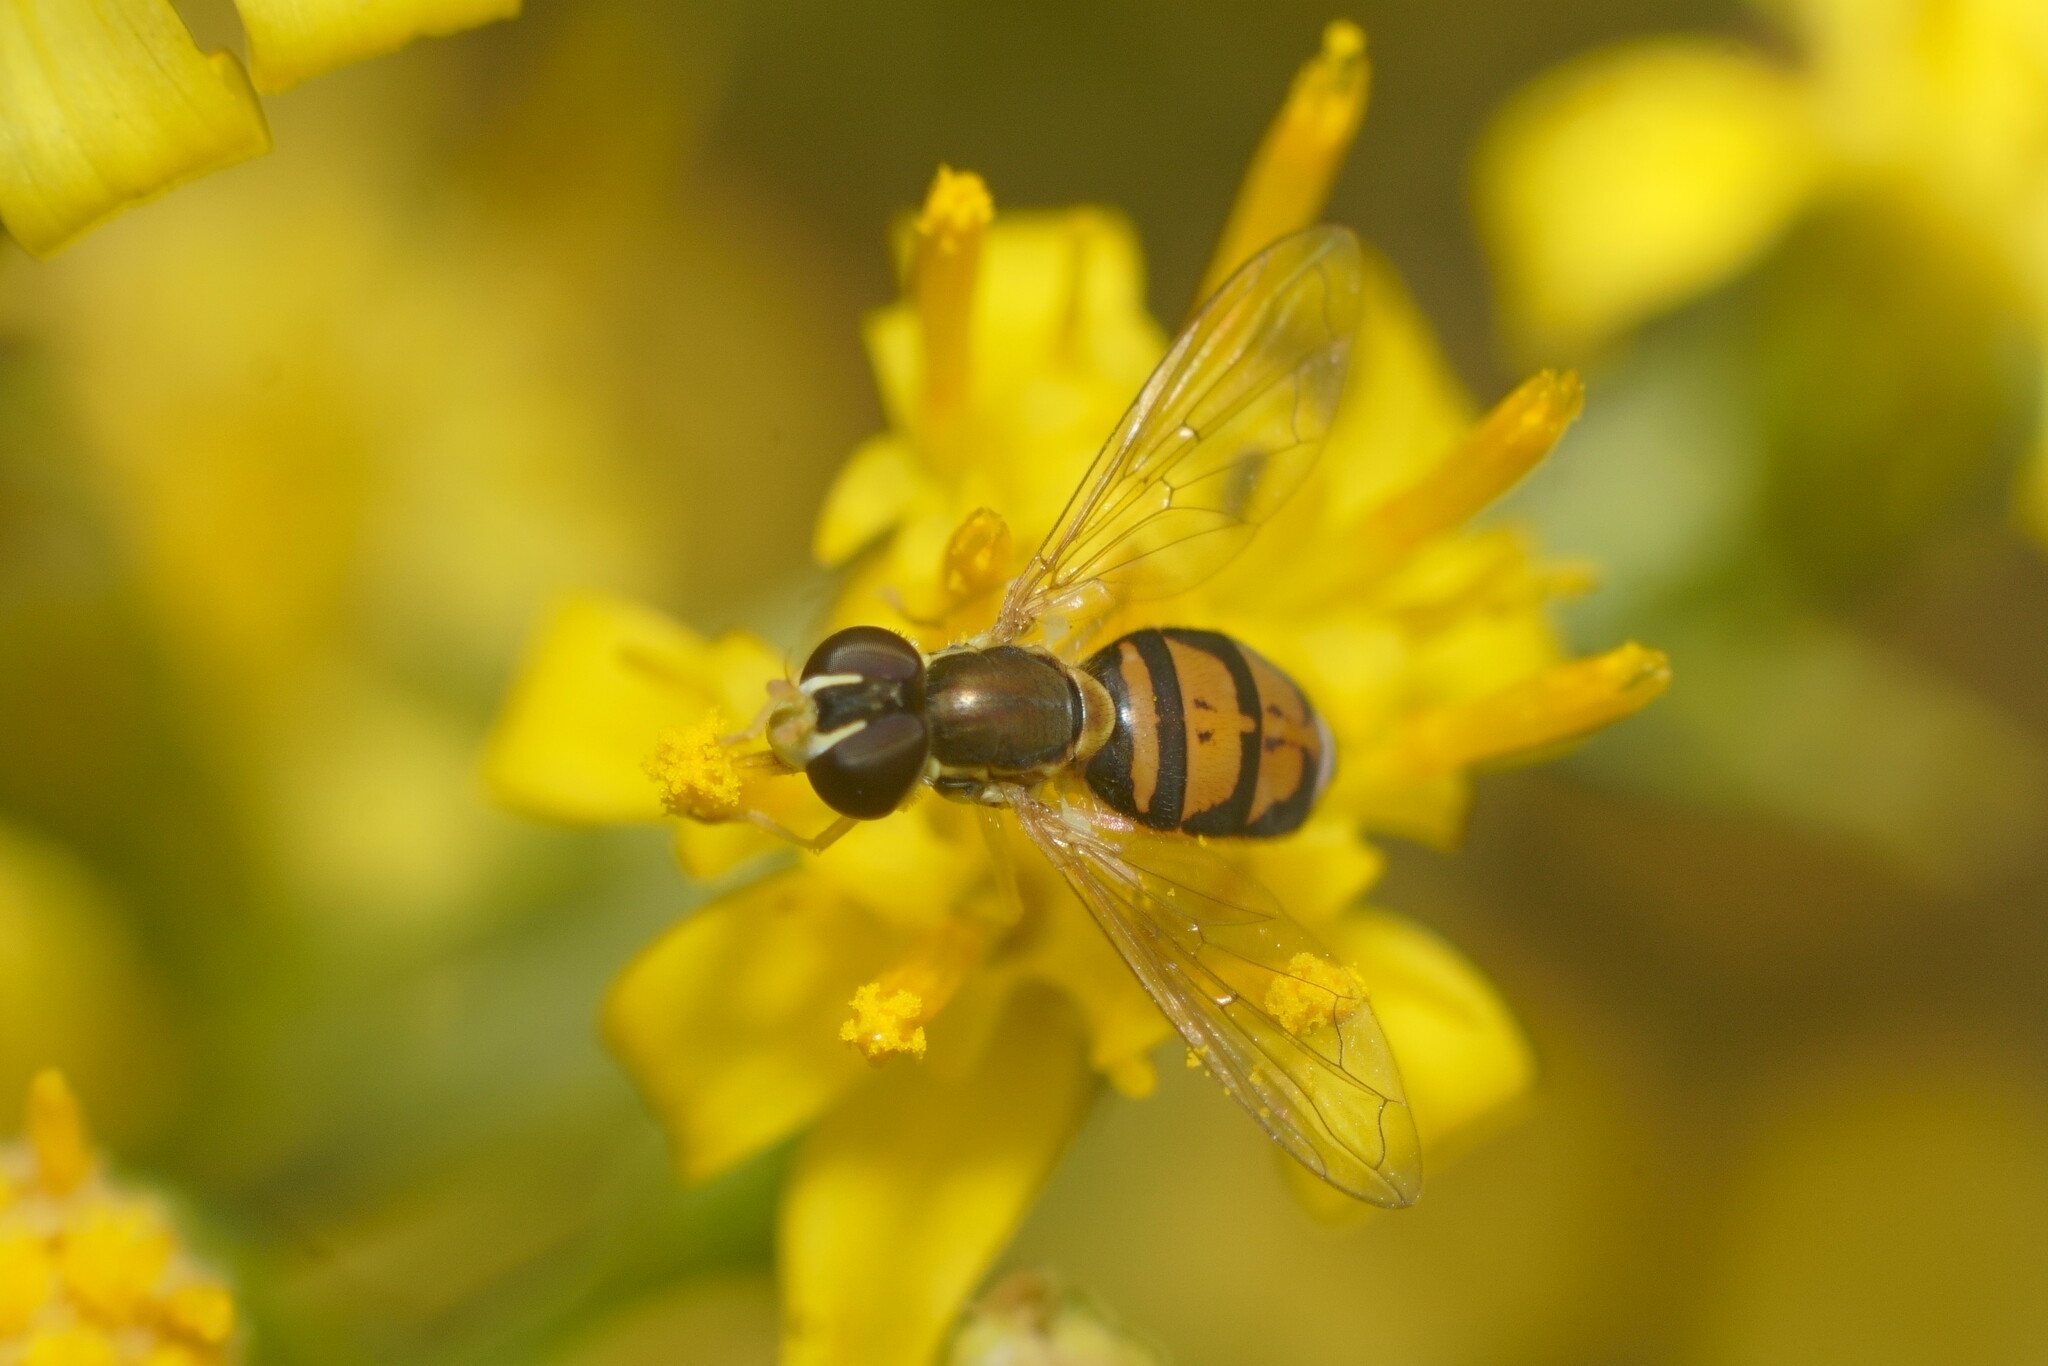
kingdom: Animalia
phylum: Arthropoda
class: Insecta
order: Diptera
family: Syrphidae
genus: Toxomerus
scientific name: Toxomerus marginatus
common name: Syrphid fly
